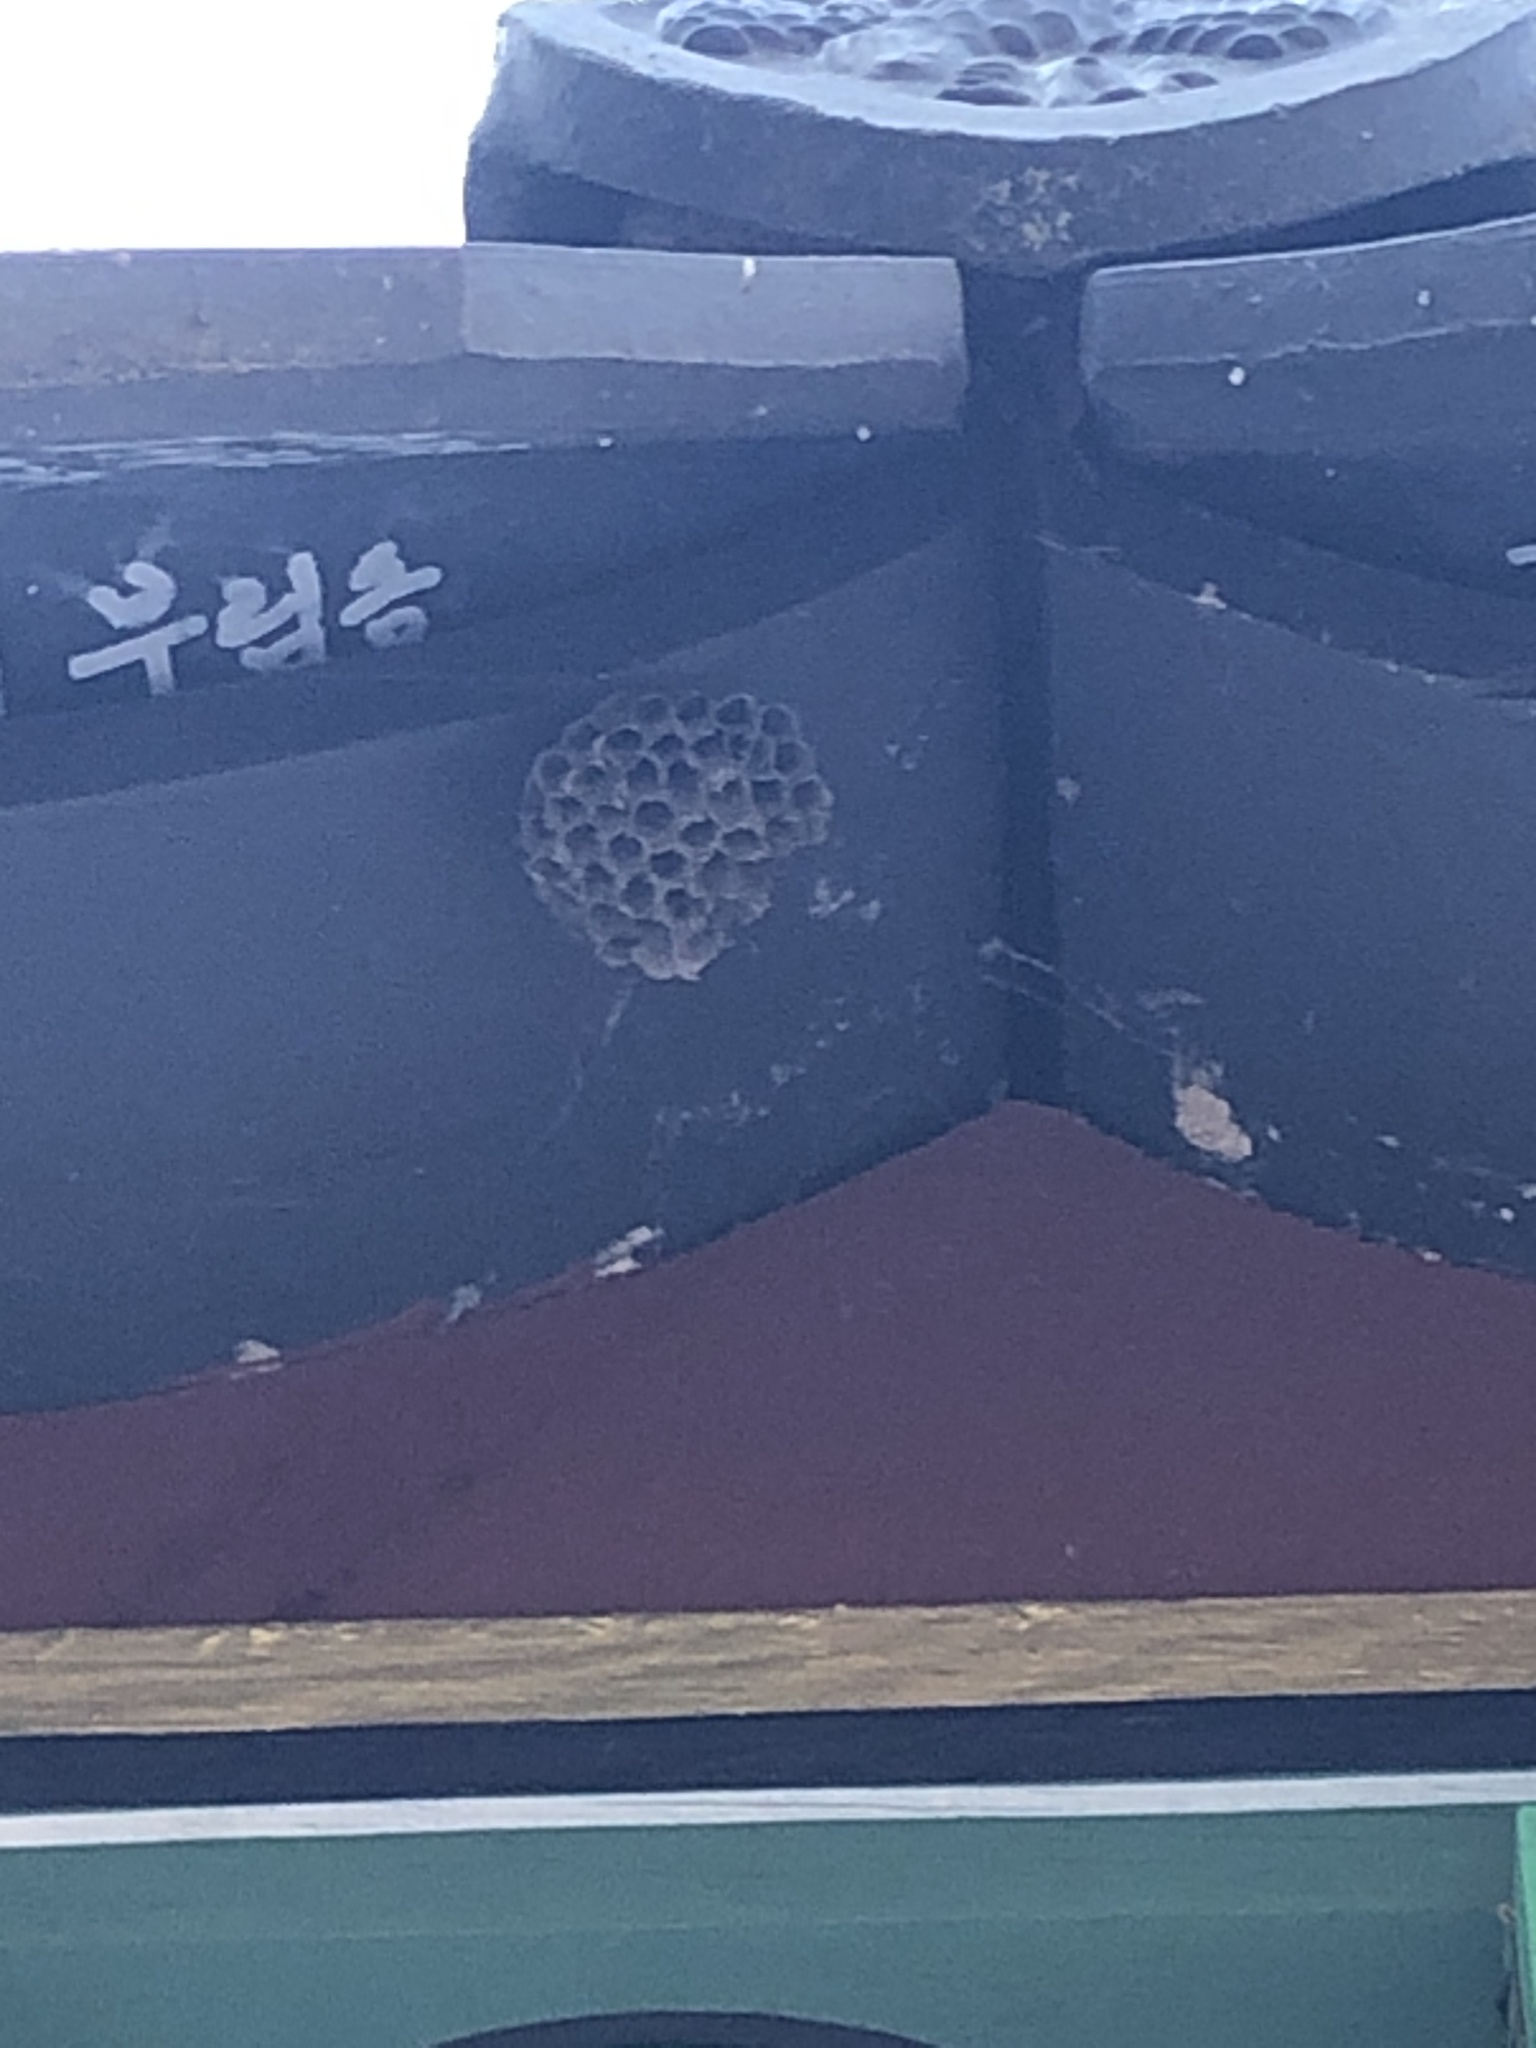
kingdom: Animalia
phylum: Arthropoda
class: Insecta
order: Hymenoptera
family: Vespidae
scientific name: Vespidae
